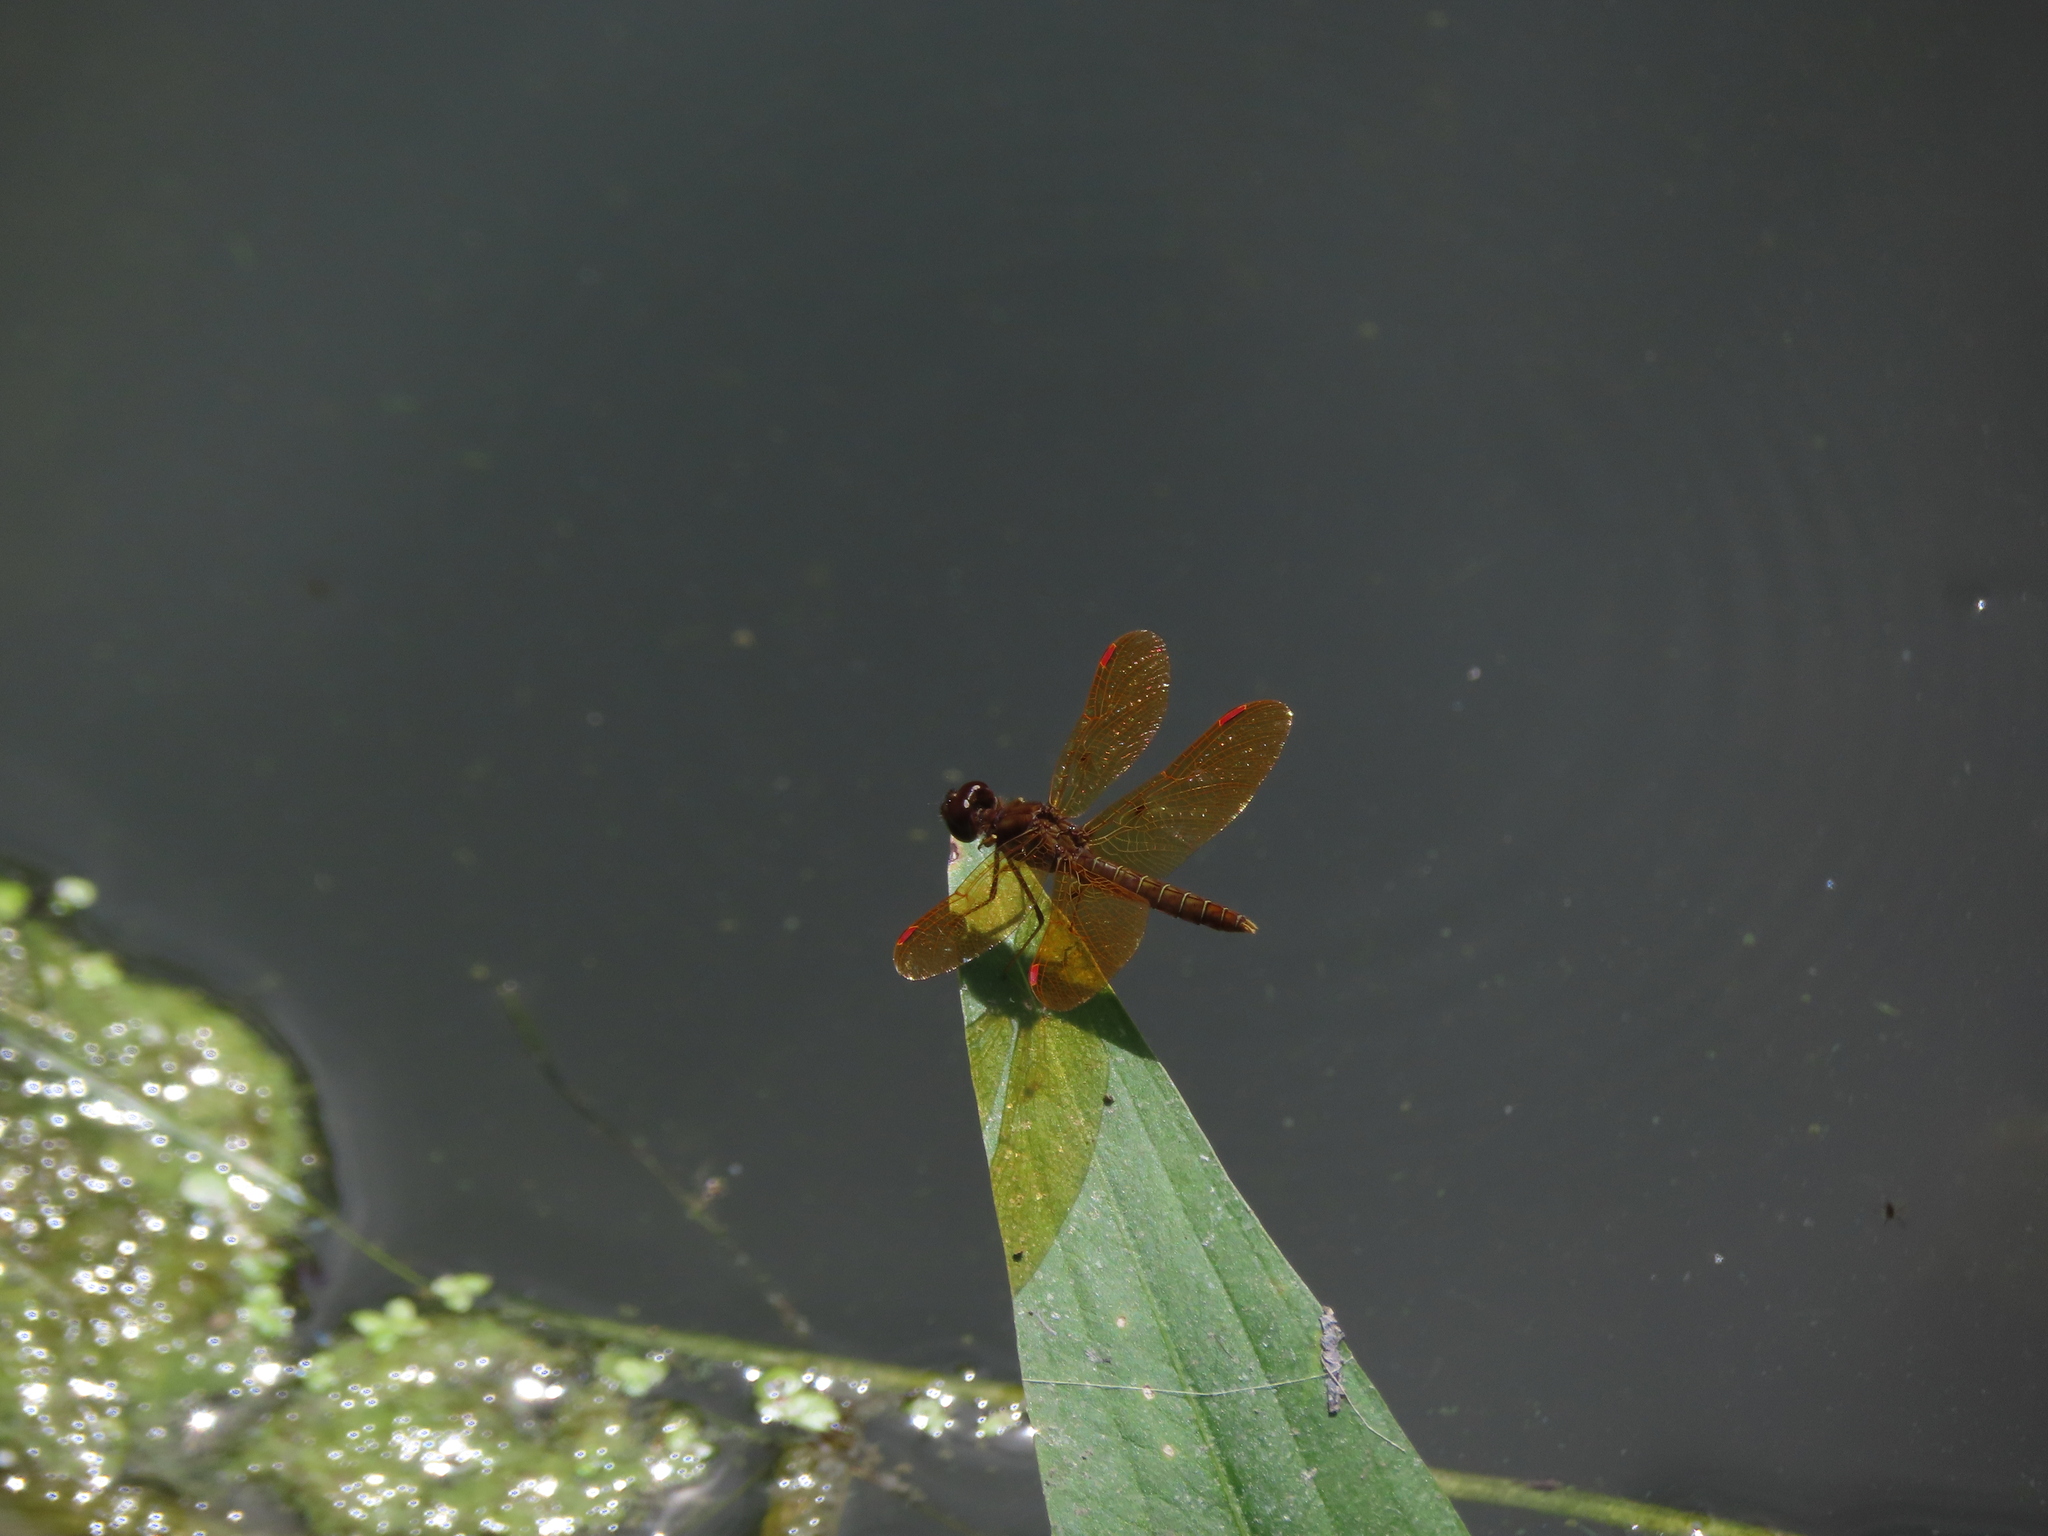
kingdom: Animalia
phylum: Arthropoda
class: Insecta
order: Odonata
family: Libellulidae
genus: Perithemis
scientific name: Perithemis tenera
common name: Eastern amberwing
